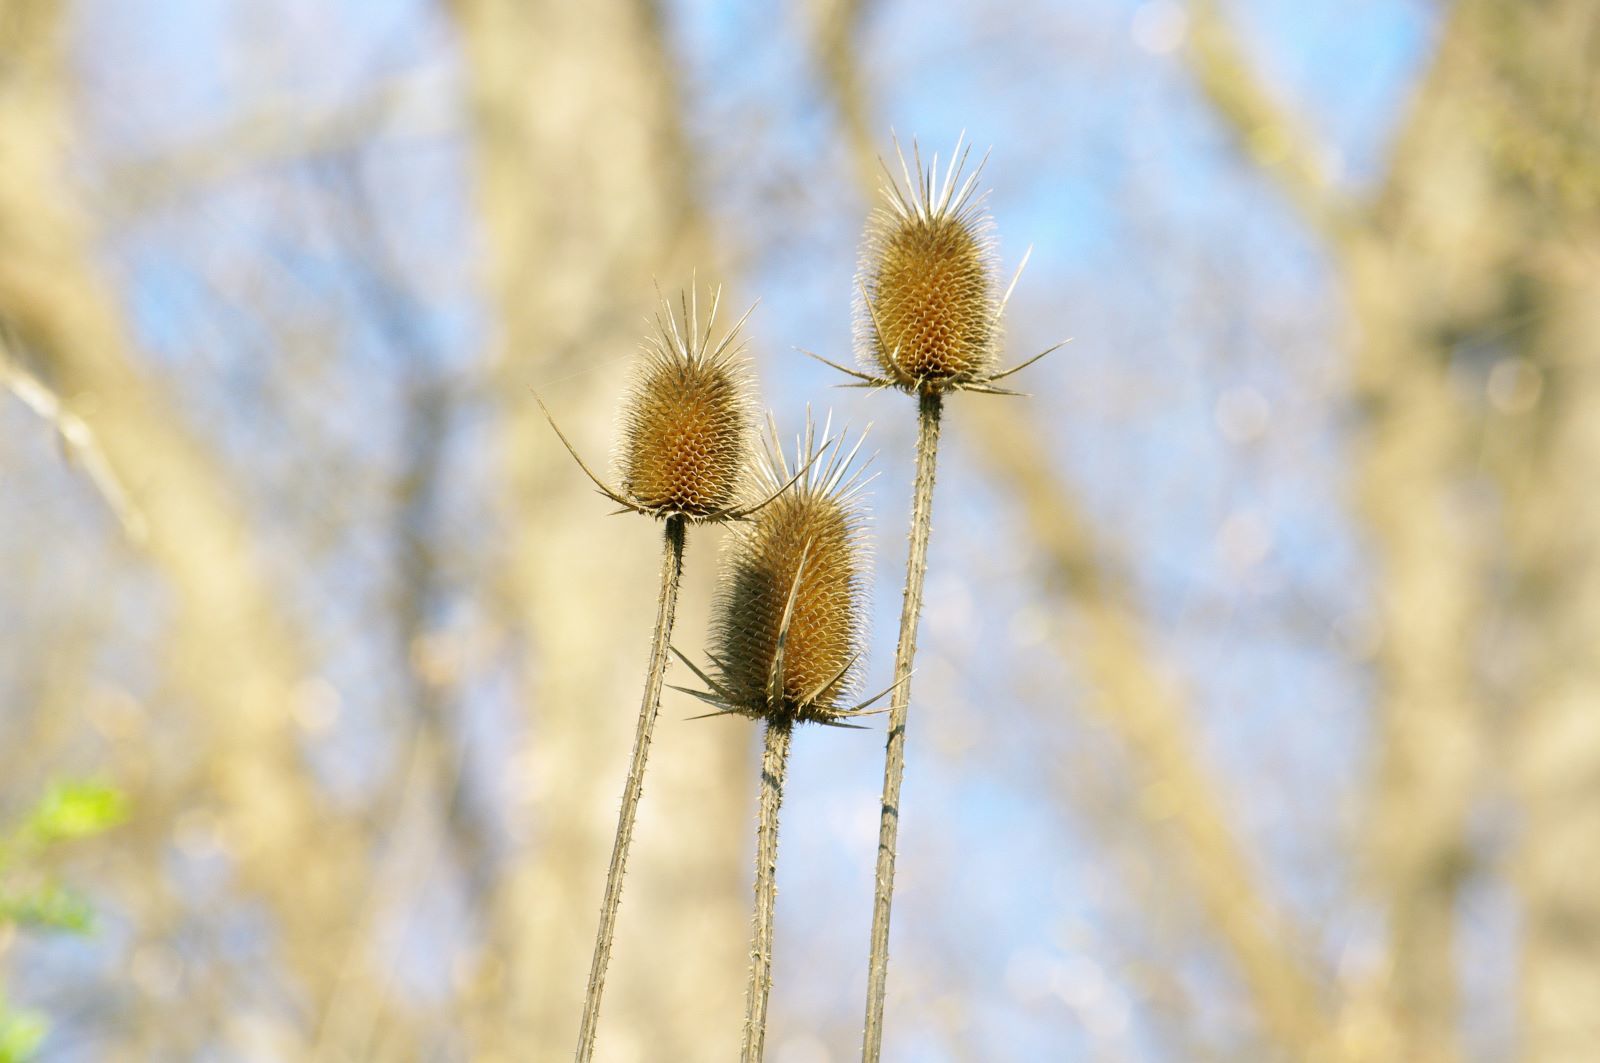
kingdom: Plantae
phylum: Tracheophyta
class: Magnoliopsida
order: Dipsacales
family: Caprifoliaceae
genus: Dipsacus
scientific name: Dipsacus laciniatus
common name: Cut-leaved teasel
